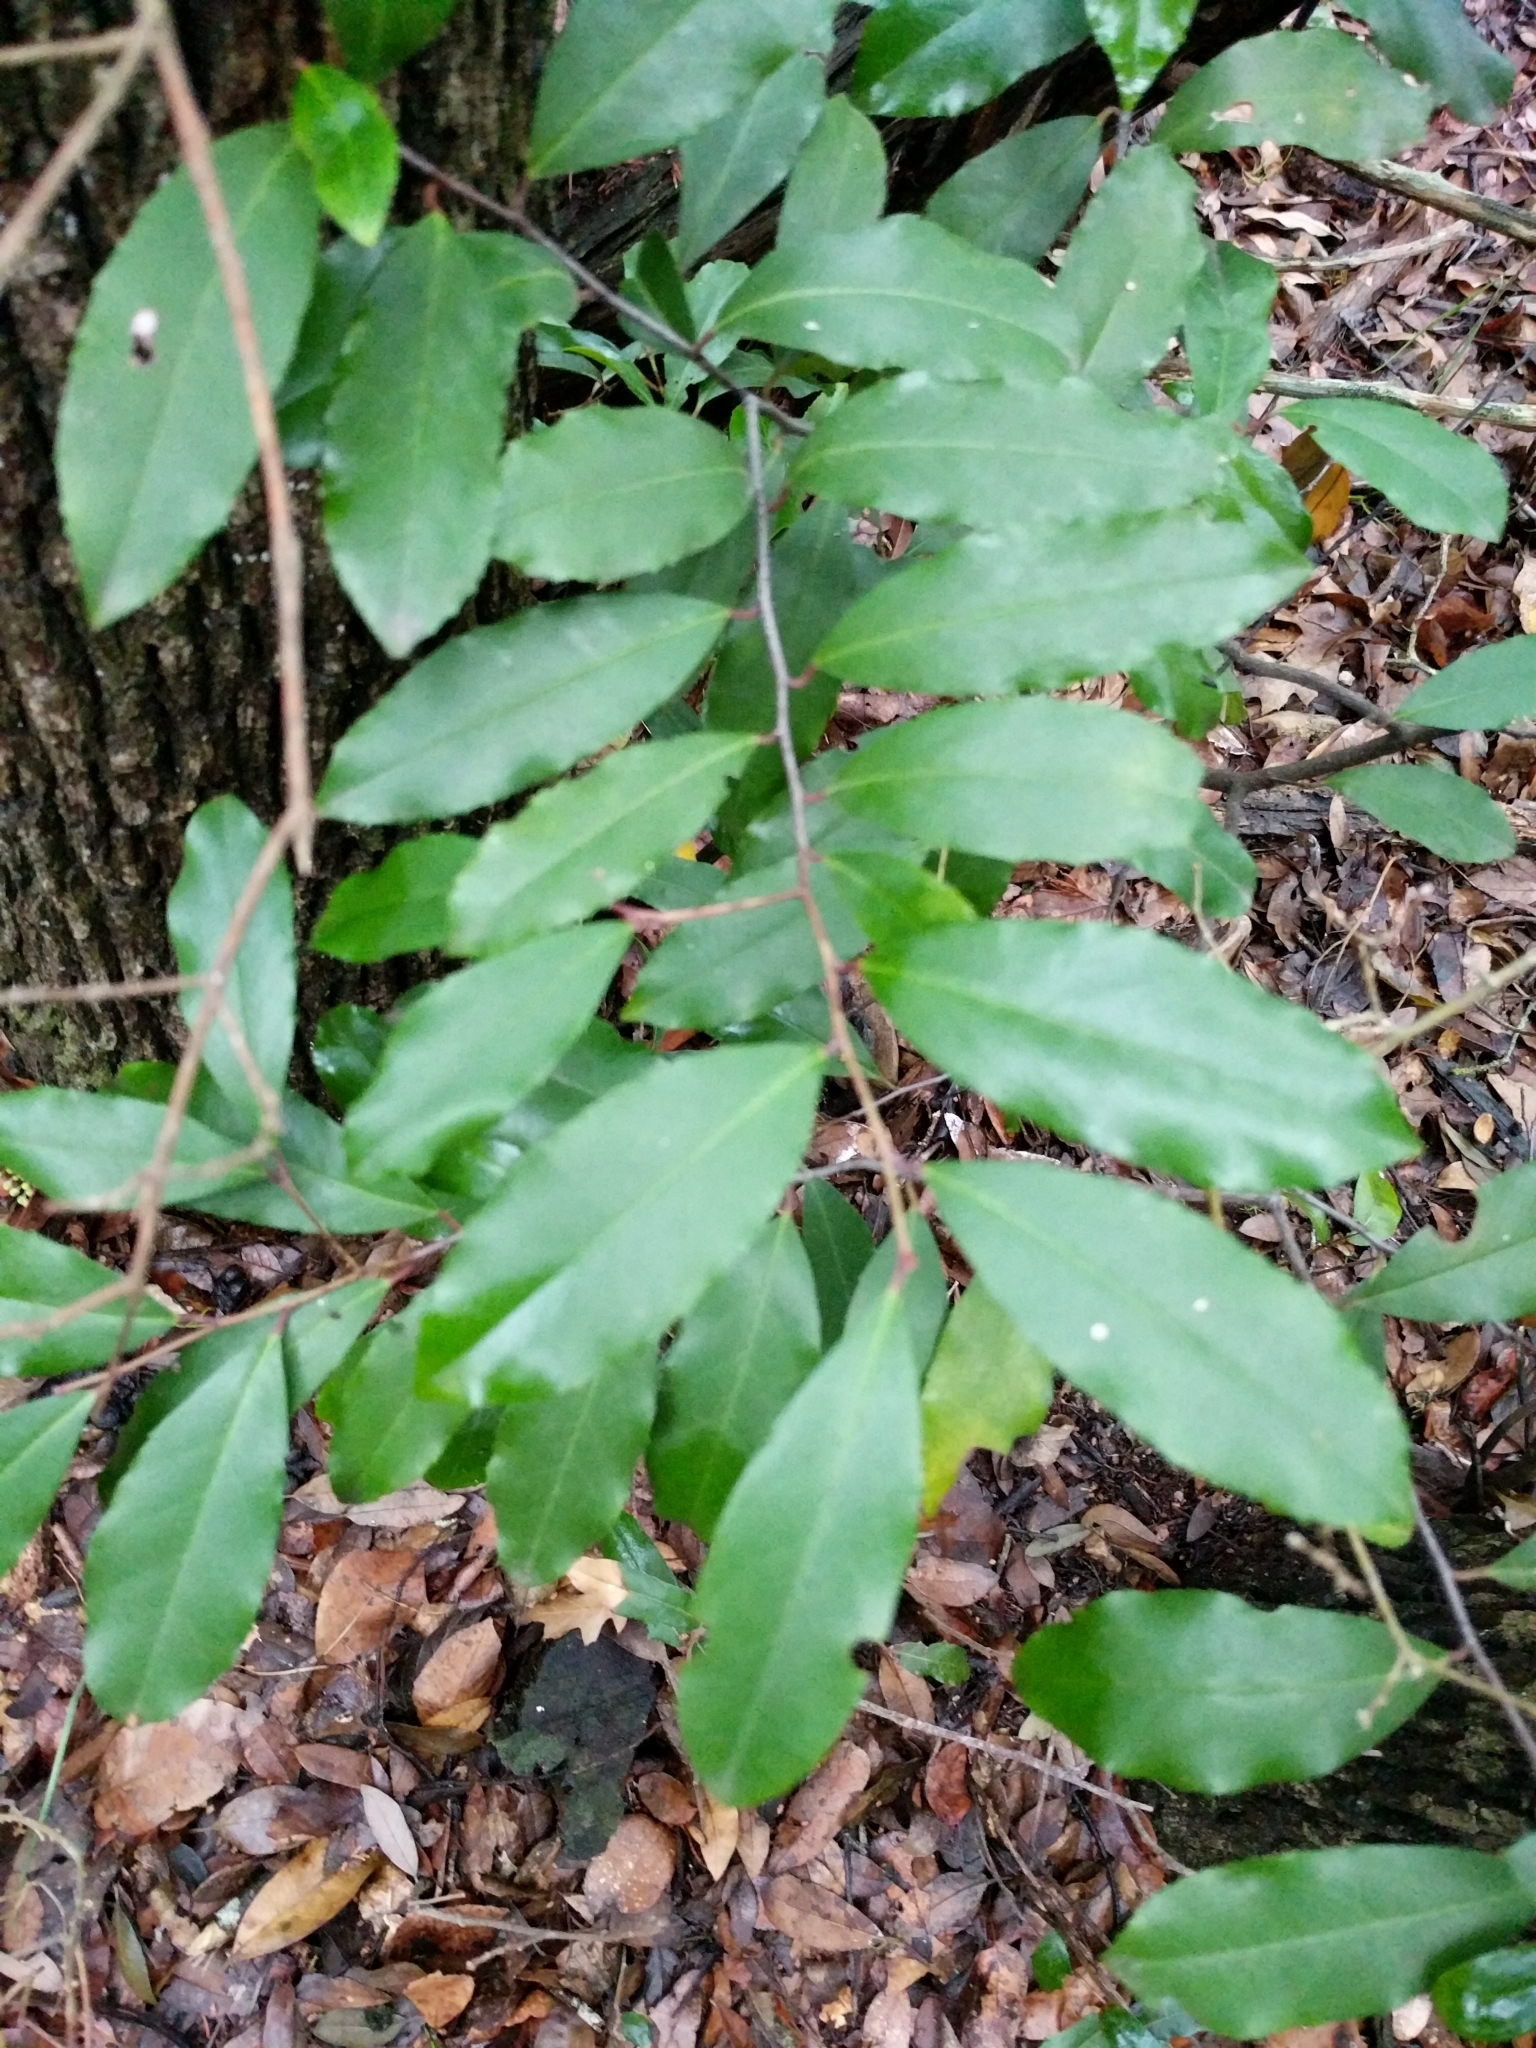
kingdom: Plantae
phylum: Tracheophyta
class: Magnoliopsida
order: Rosales
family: Rosaceae
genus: Prunus
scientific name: Prunus caroliniana
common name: Carolina laurel cherry
